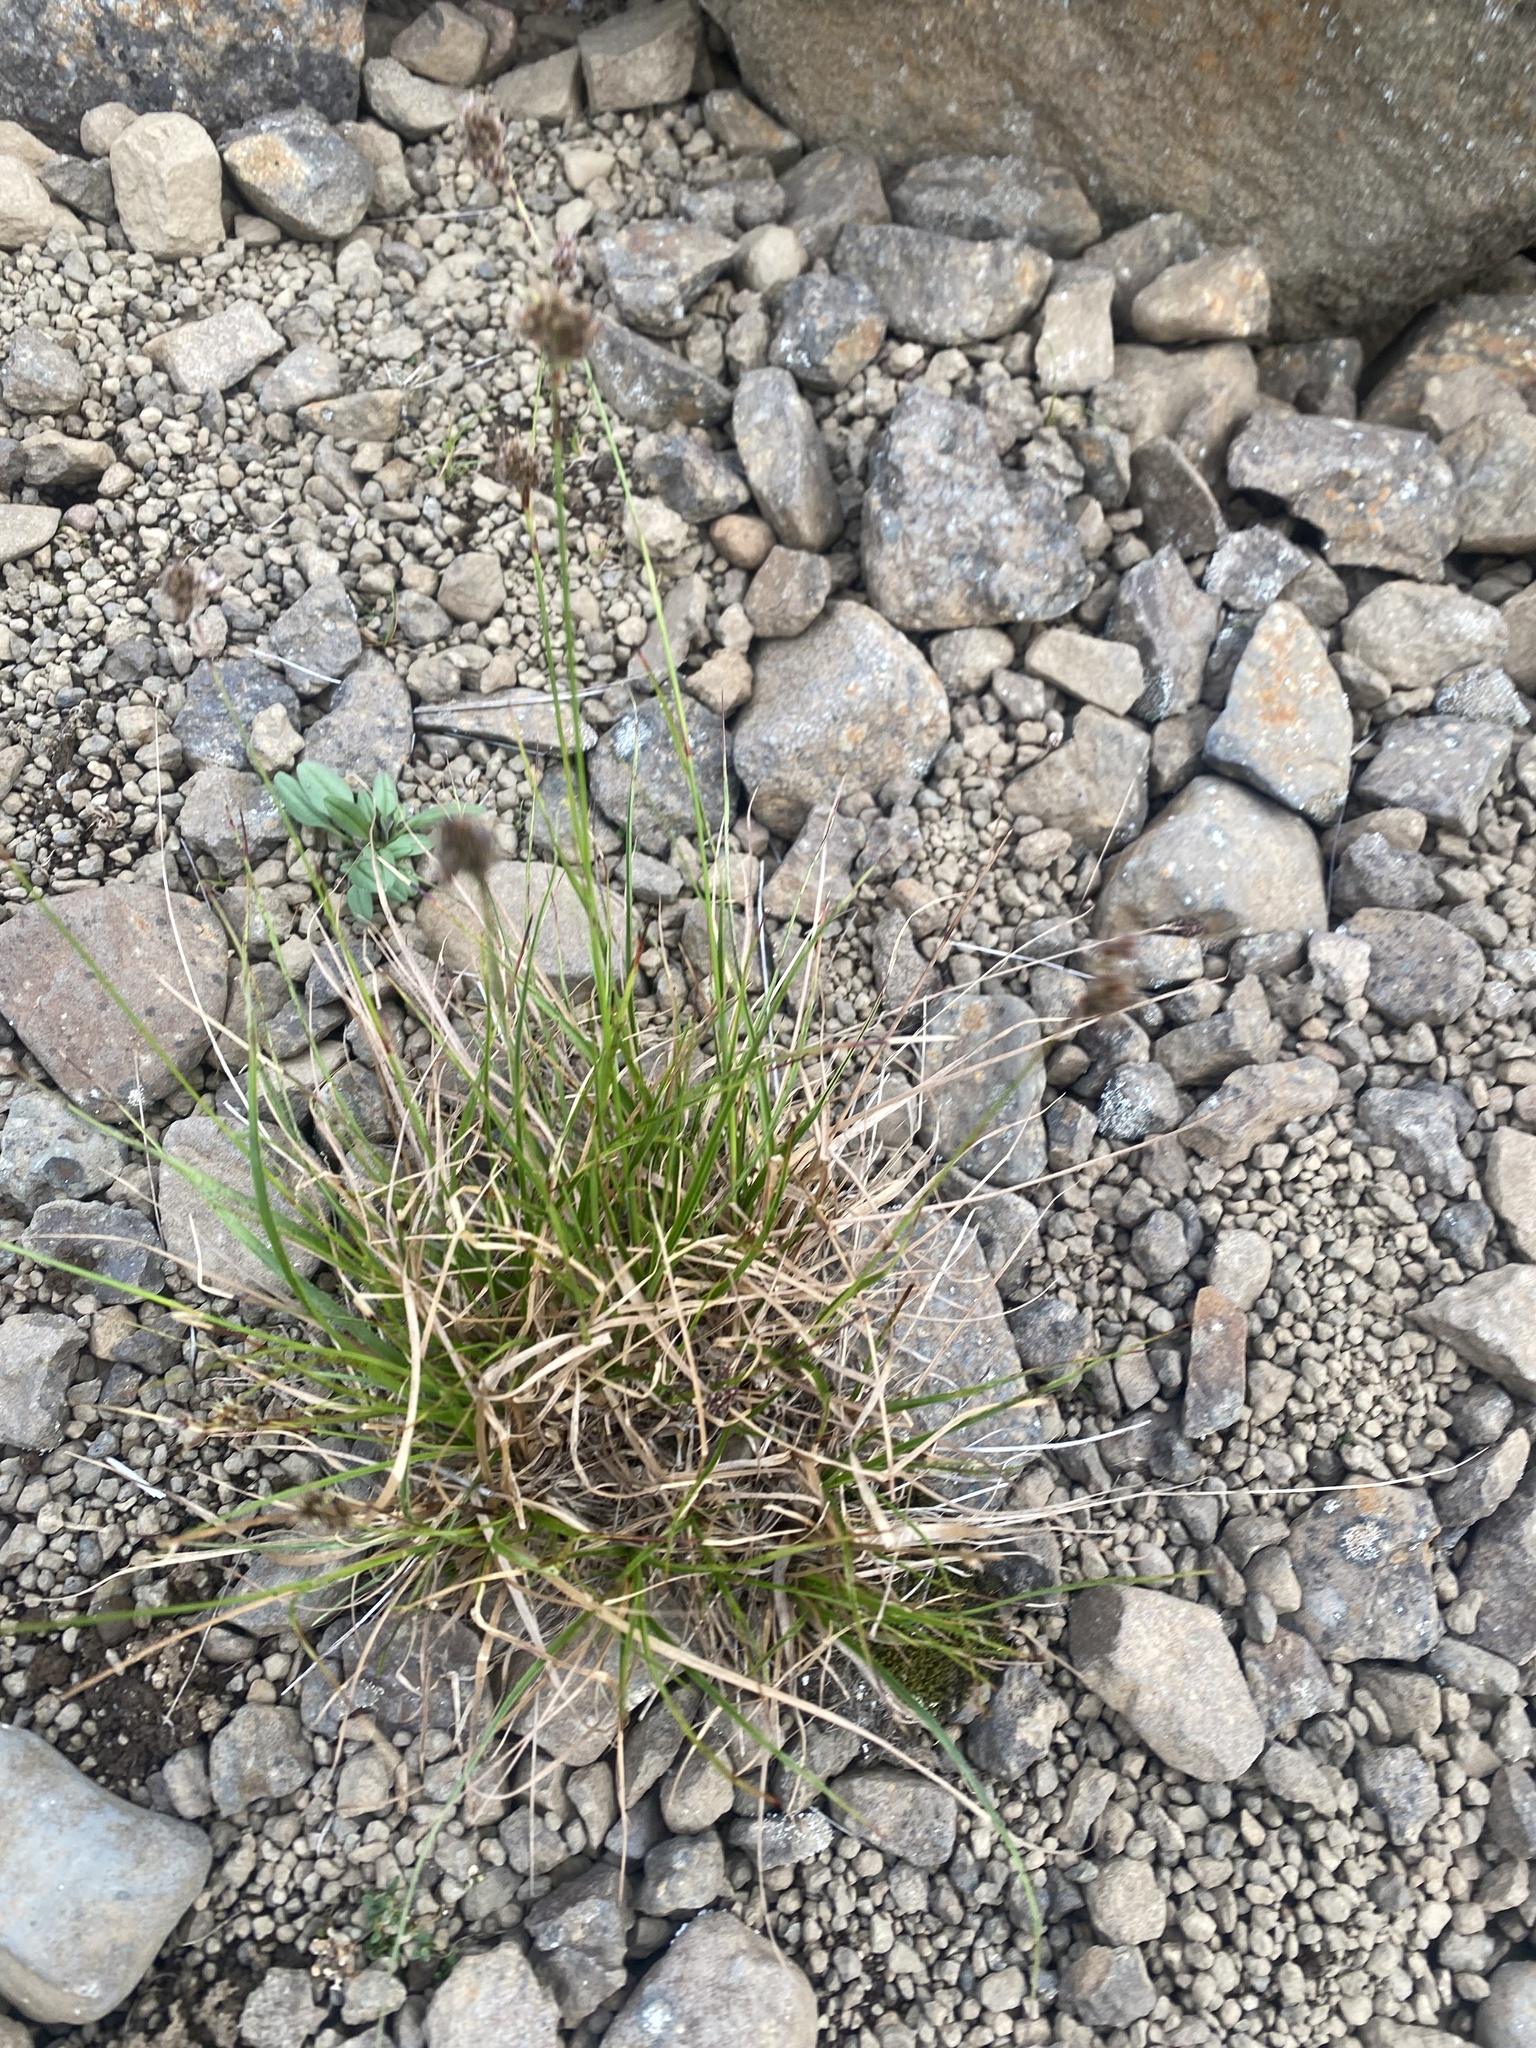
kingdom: Plantae
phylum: Tracheophyta
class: Liliopsida
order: Poales
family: Juncaceae
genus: Luzula
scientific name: Luzula confusa
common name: Northern wood rush
